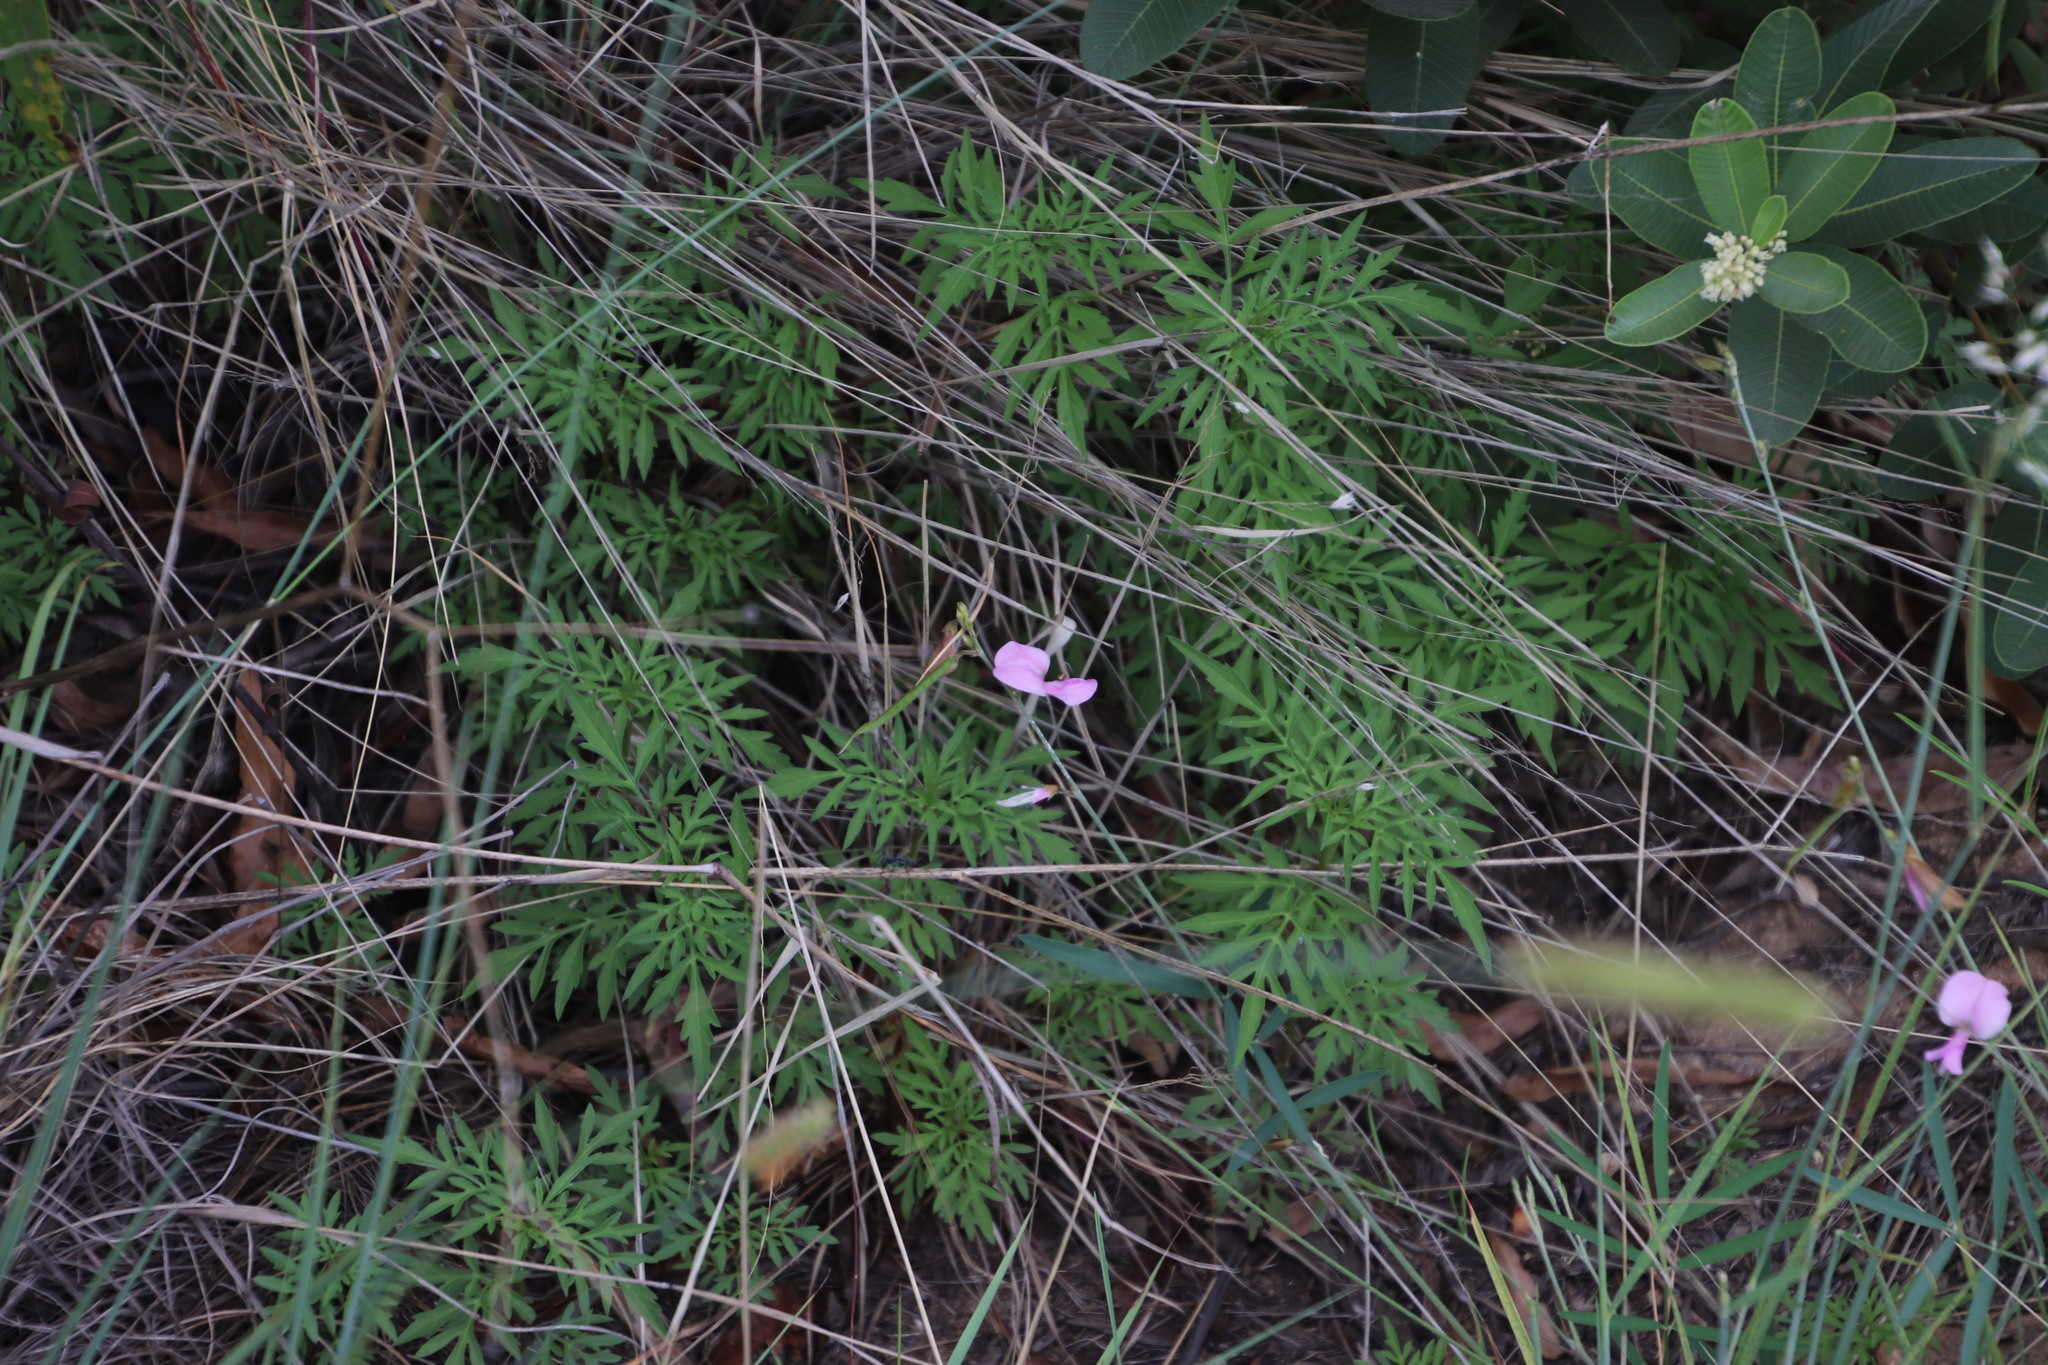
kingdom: Plantae
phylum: Tracheophyta
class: Magnoliopsida
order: Asterales
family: Asteraceae
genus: Bidens
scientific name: Bidens bipinnata
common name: Spanish-needles
